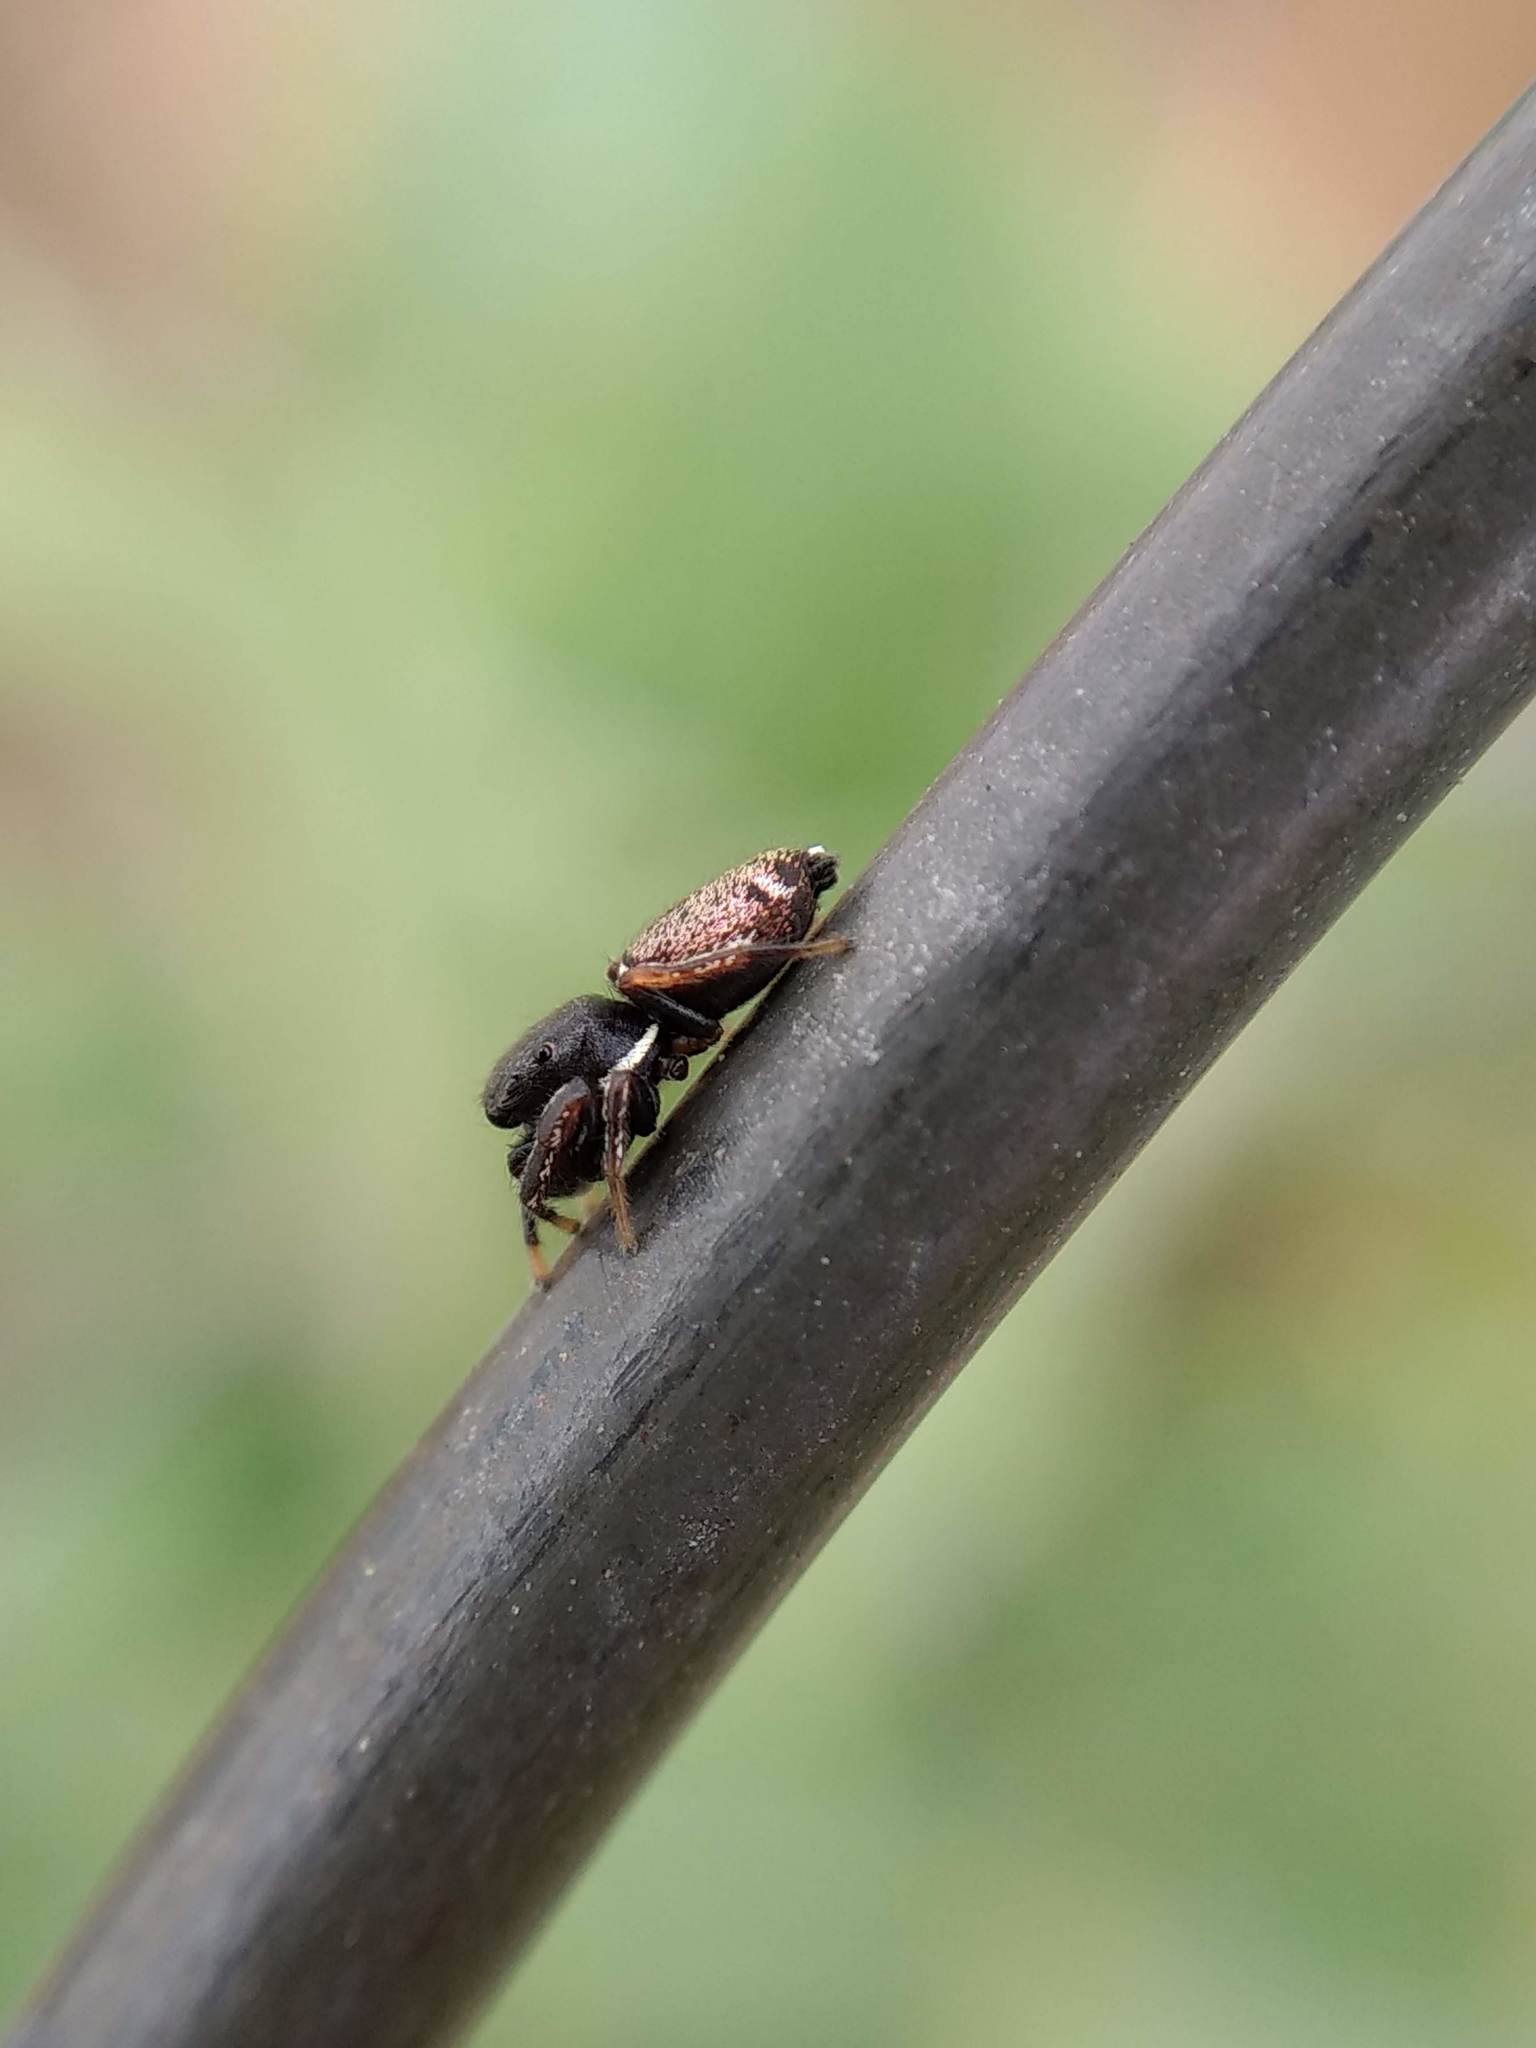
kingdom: Animalia
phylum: Arthropoda
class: Arachnida
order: Araneae
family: Salticidae
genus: Sassacus
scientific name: Sassacus vitis
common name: Jumping spiders
